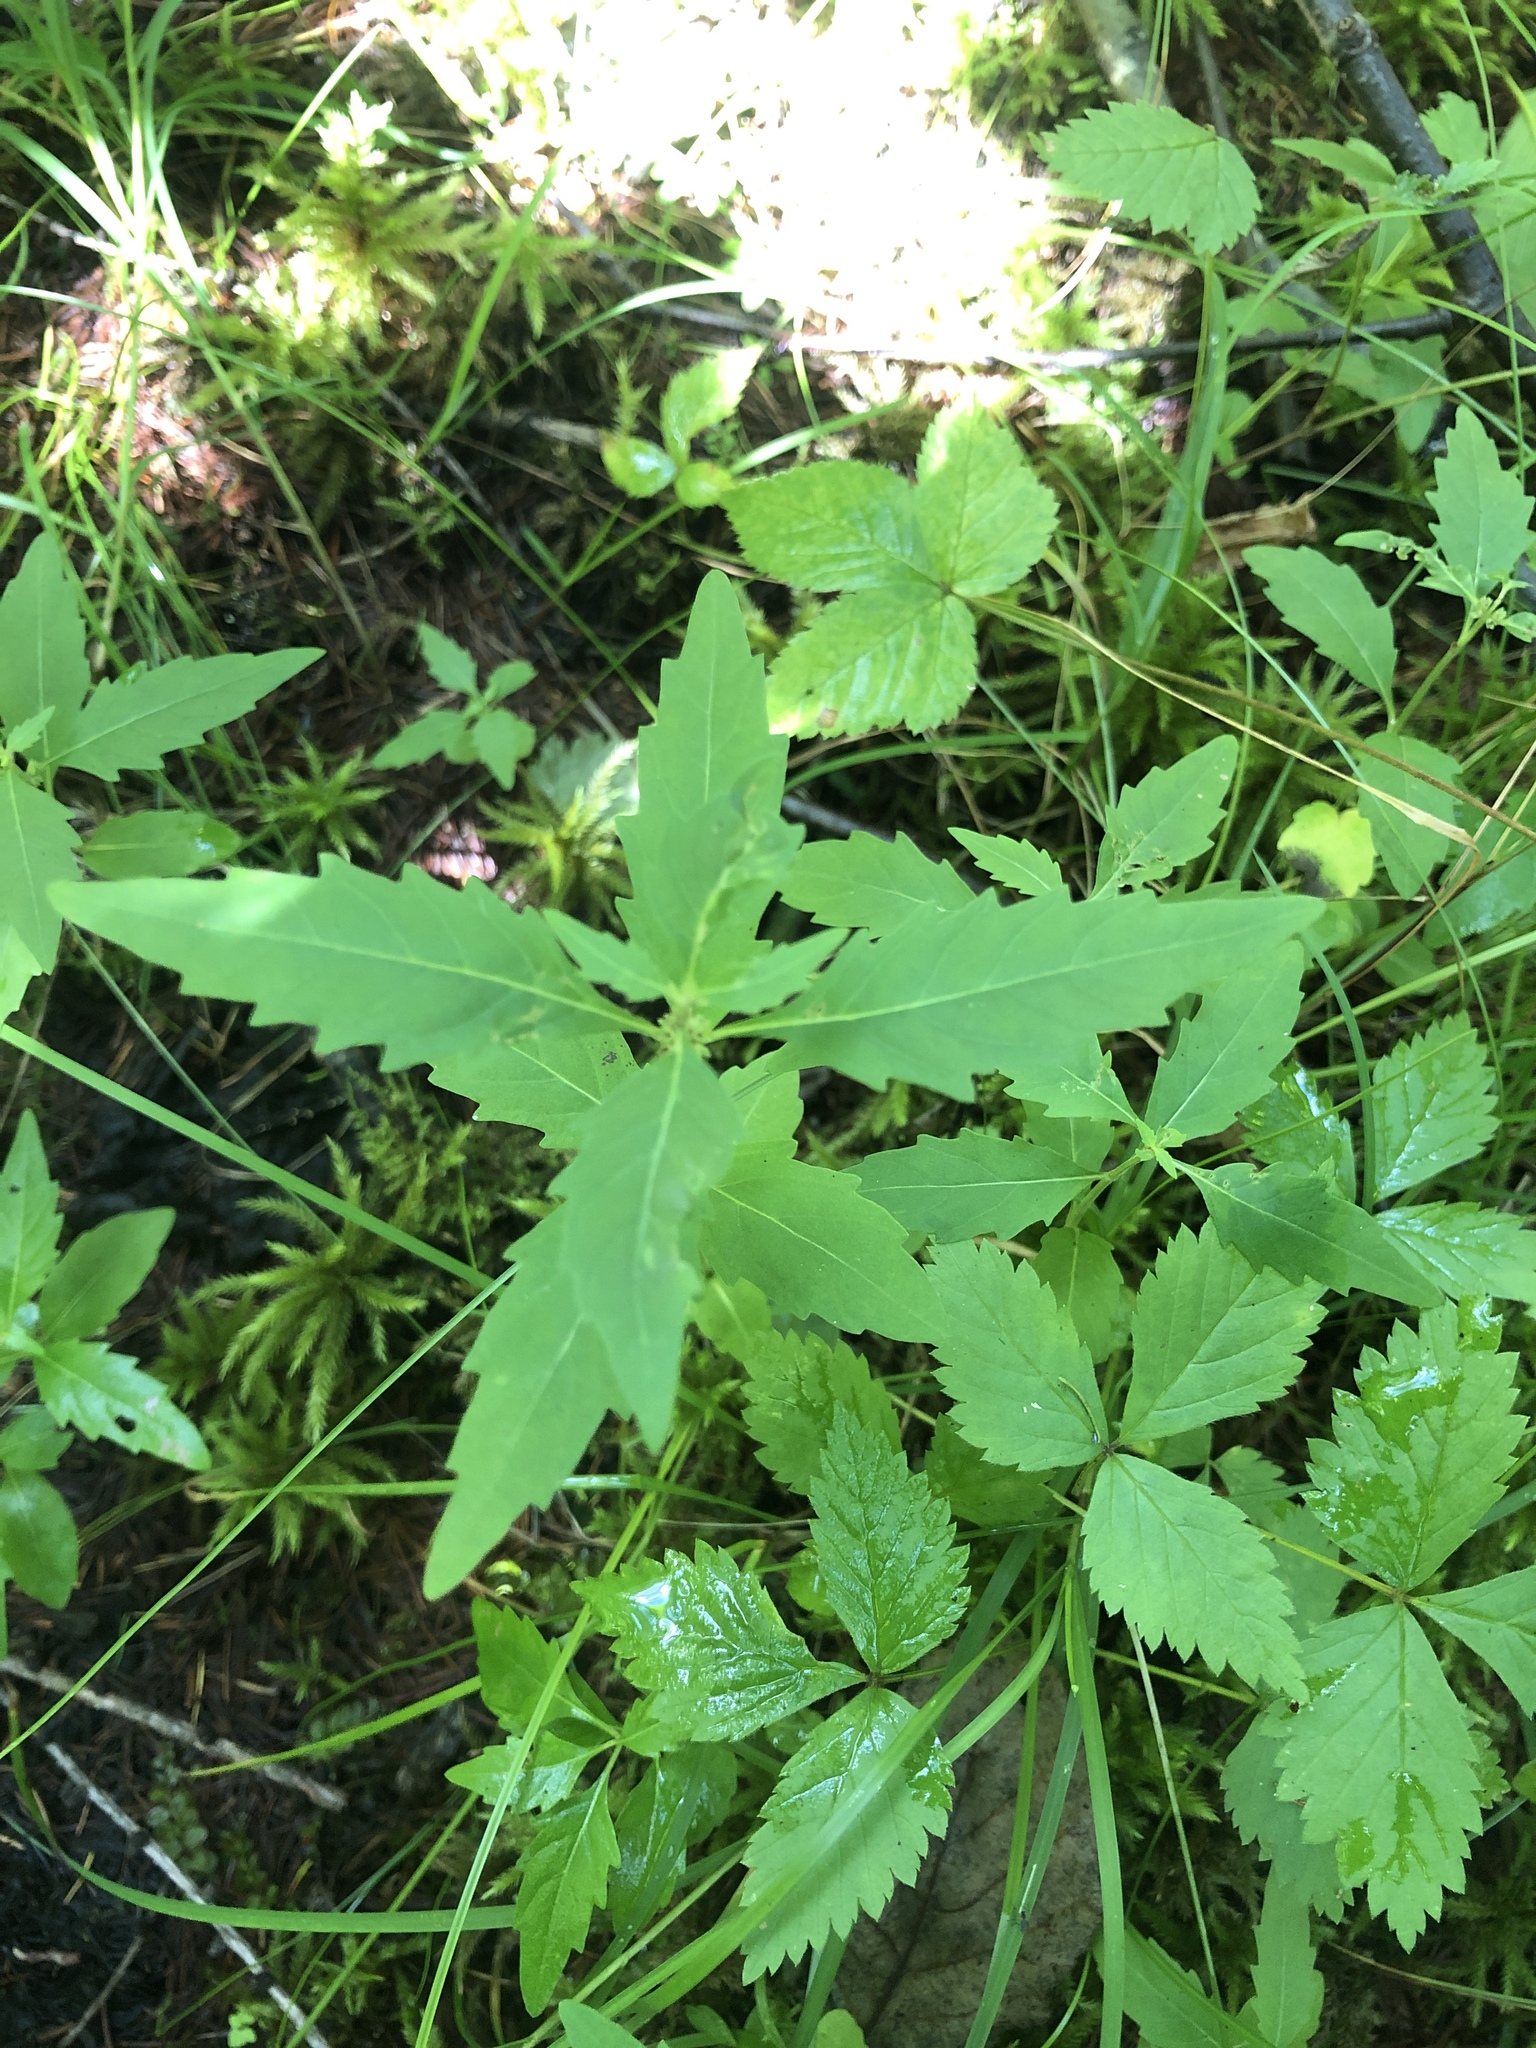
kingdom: Plantae
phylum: Tracheophyta
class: Magnoliopsida
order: Lamiales
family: Lamiaceae
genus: Lycopus
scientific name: Lycopus uniflorus
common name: Northern bugleweed
